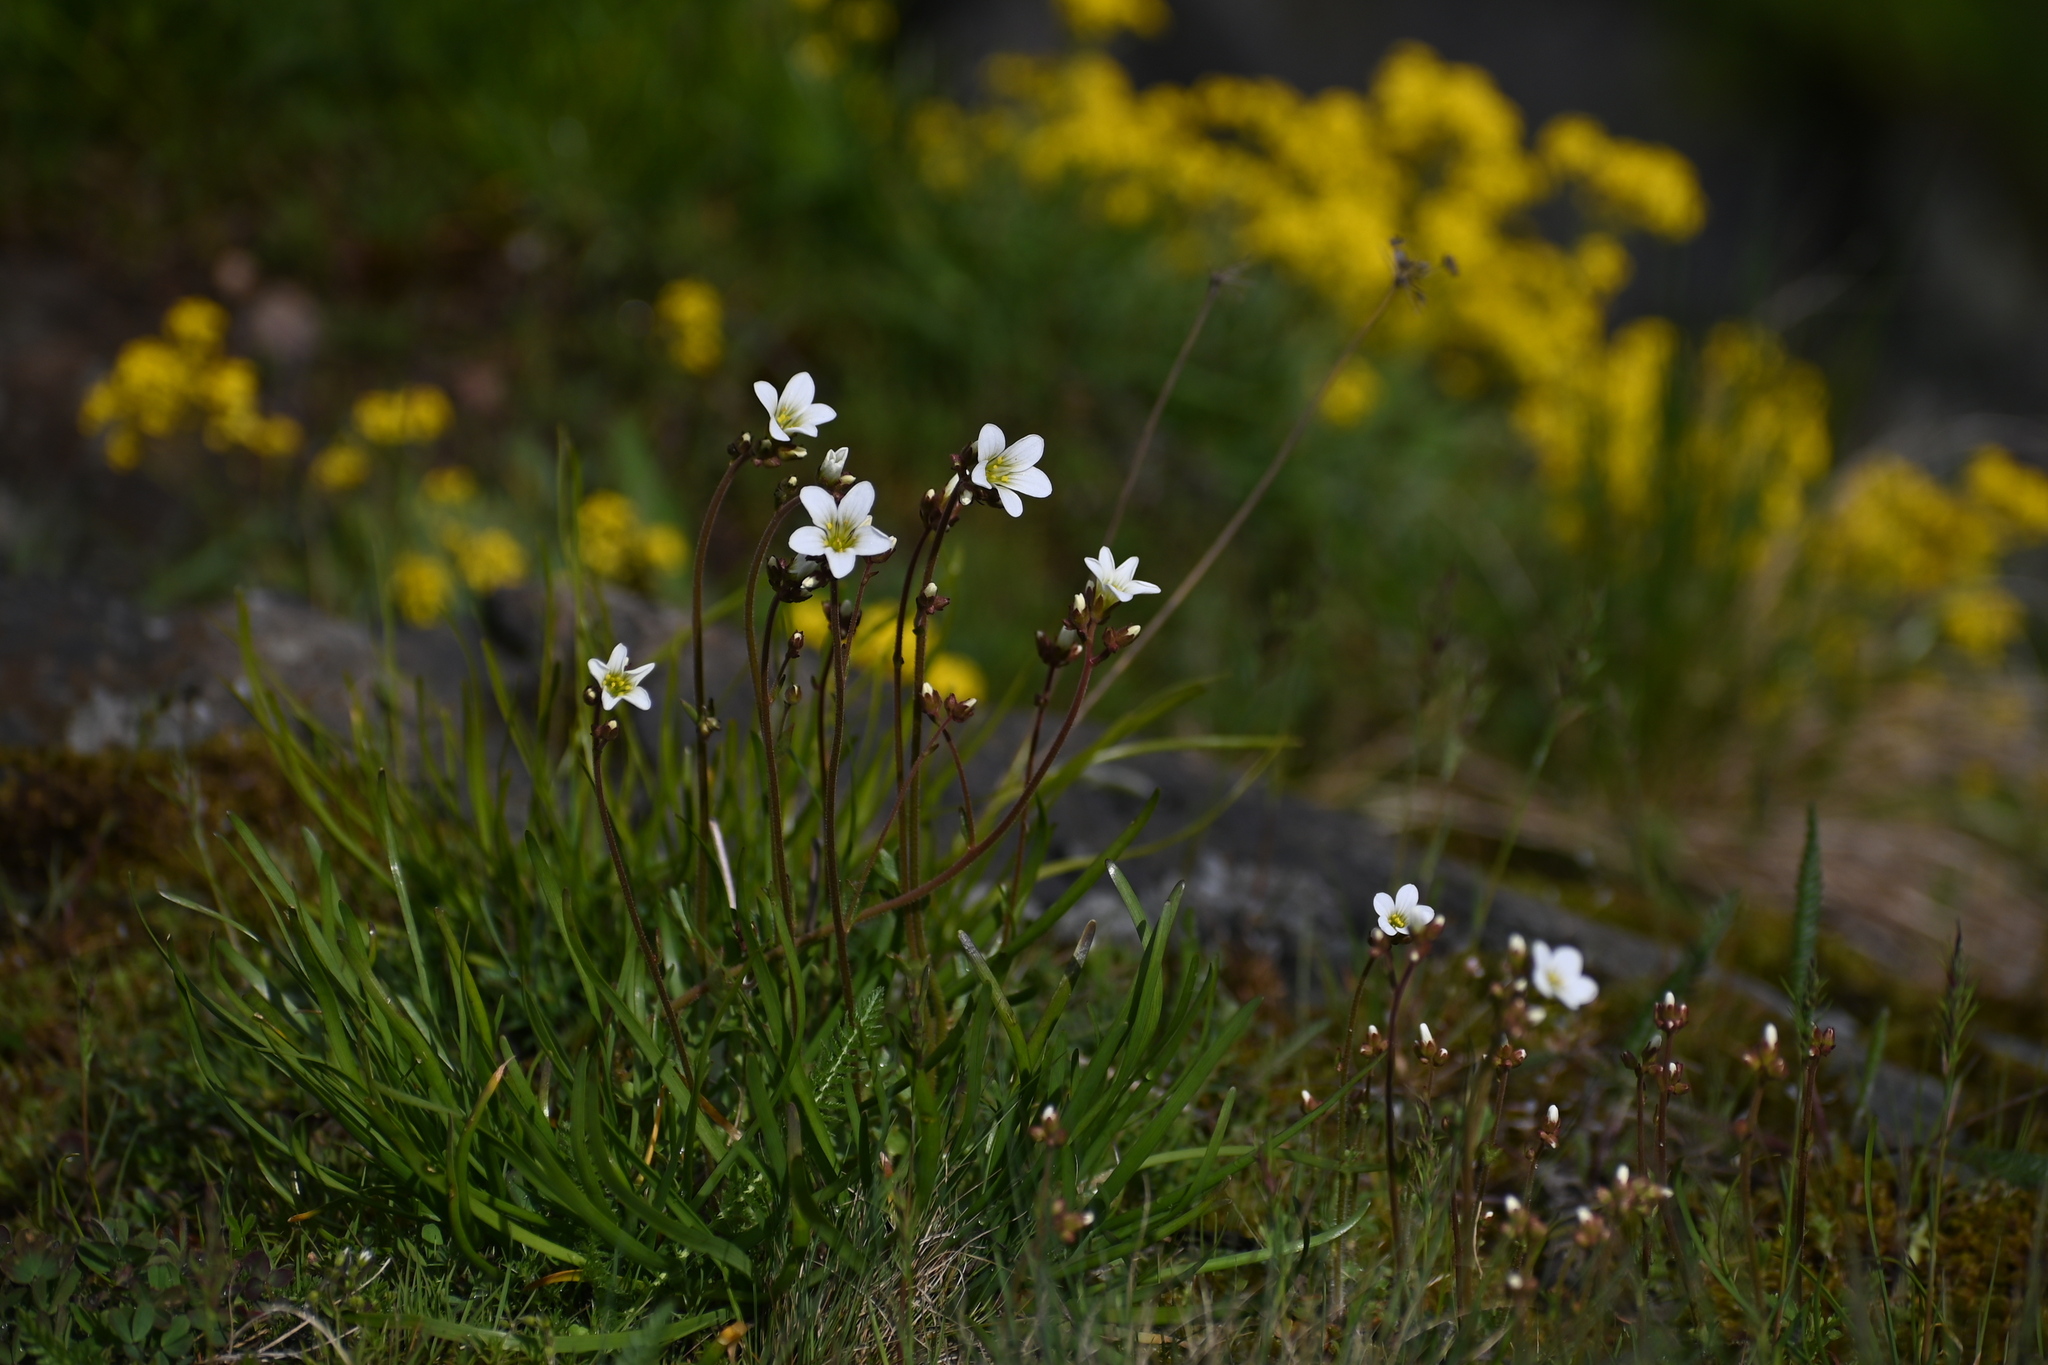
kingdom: Plantae
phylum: Tracheophyta
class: Magnoliopsida
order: Saxifragales
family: Saxifragaceae
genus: Saxifraga
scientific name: Saxifraga granulata
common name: Meadow saxifrage
